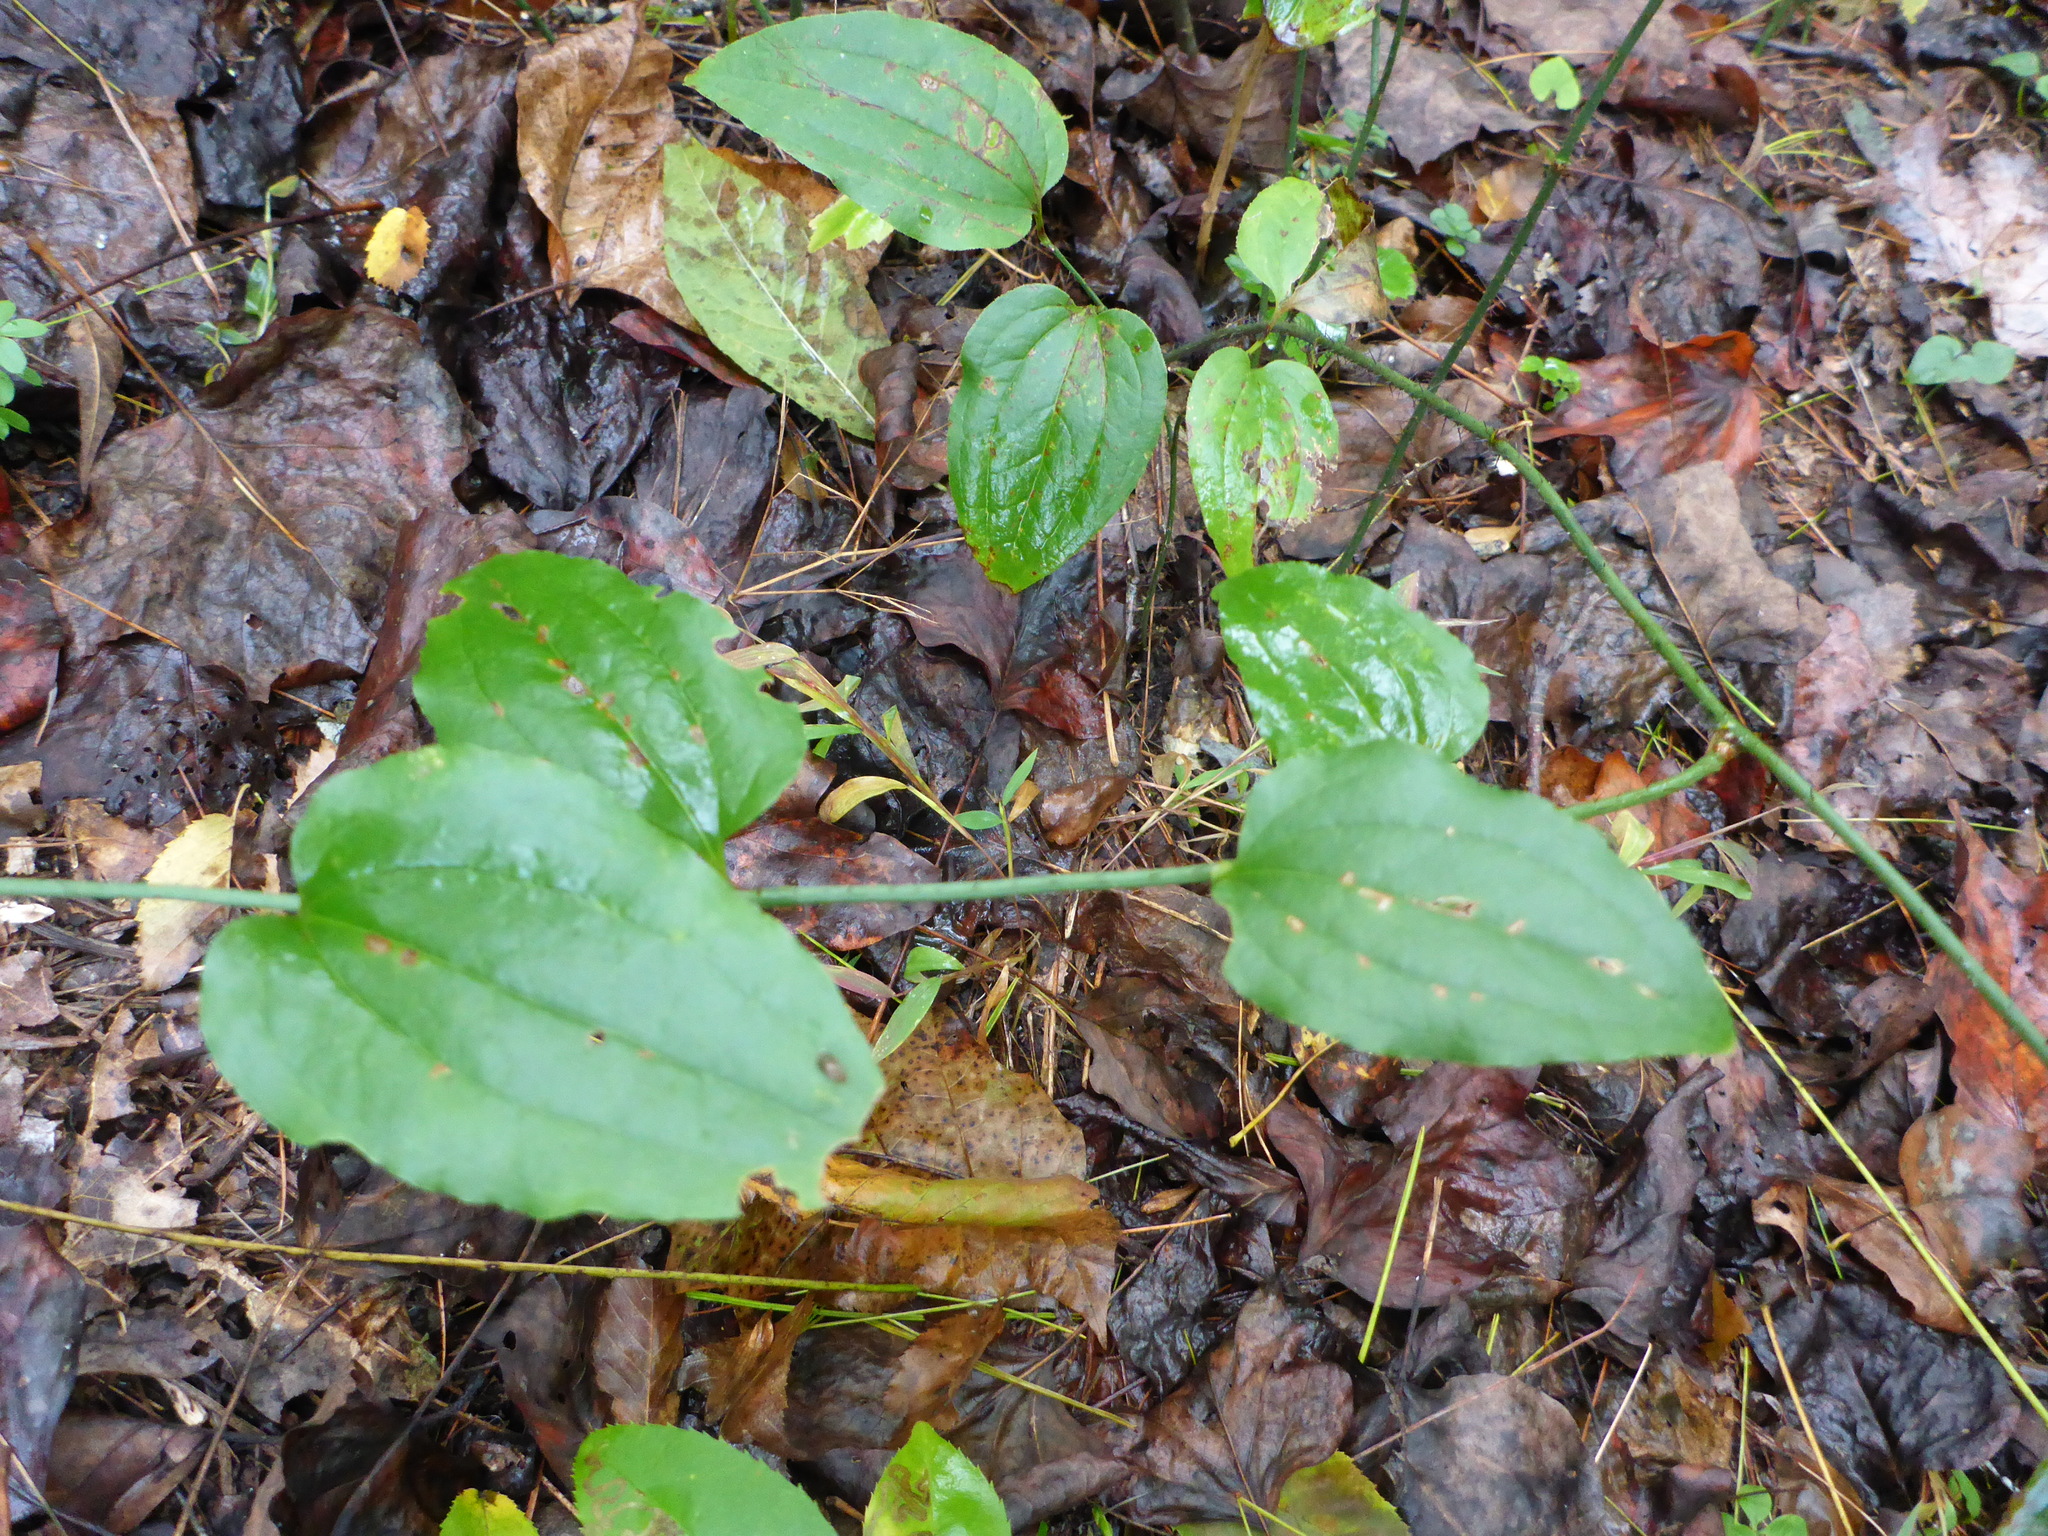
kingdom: Plantae
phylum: Tracheophyta
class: Liliopsida
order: Liliales
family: Smilacaceae
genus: Smilax
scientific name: Smilax tamnoides
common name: Hellfetter
